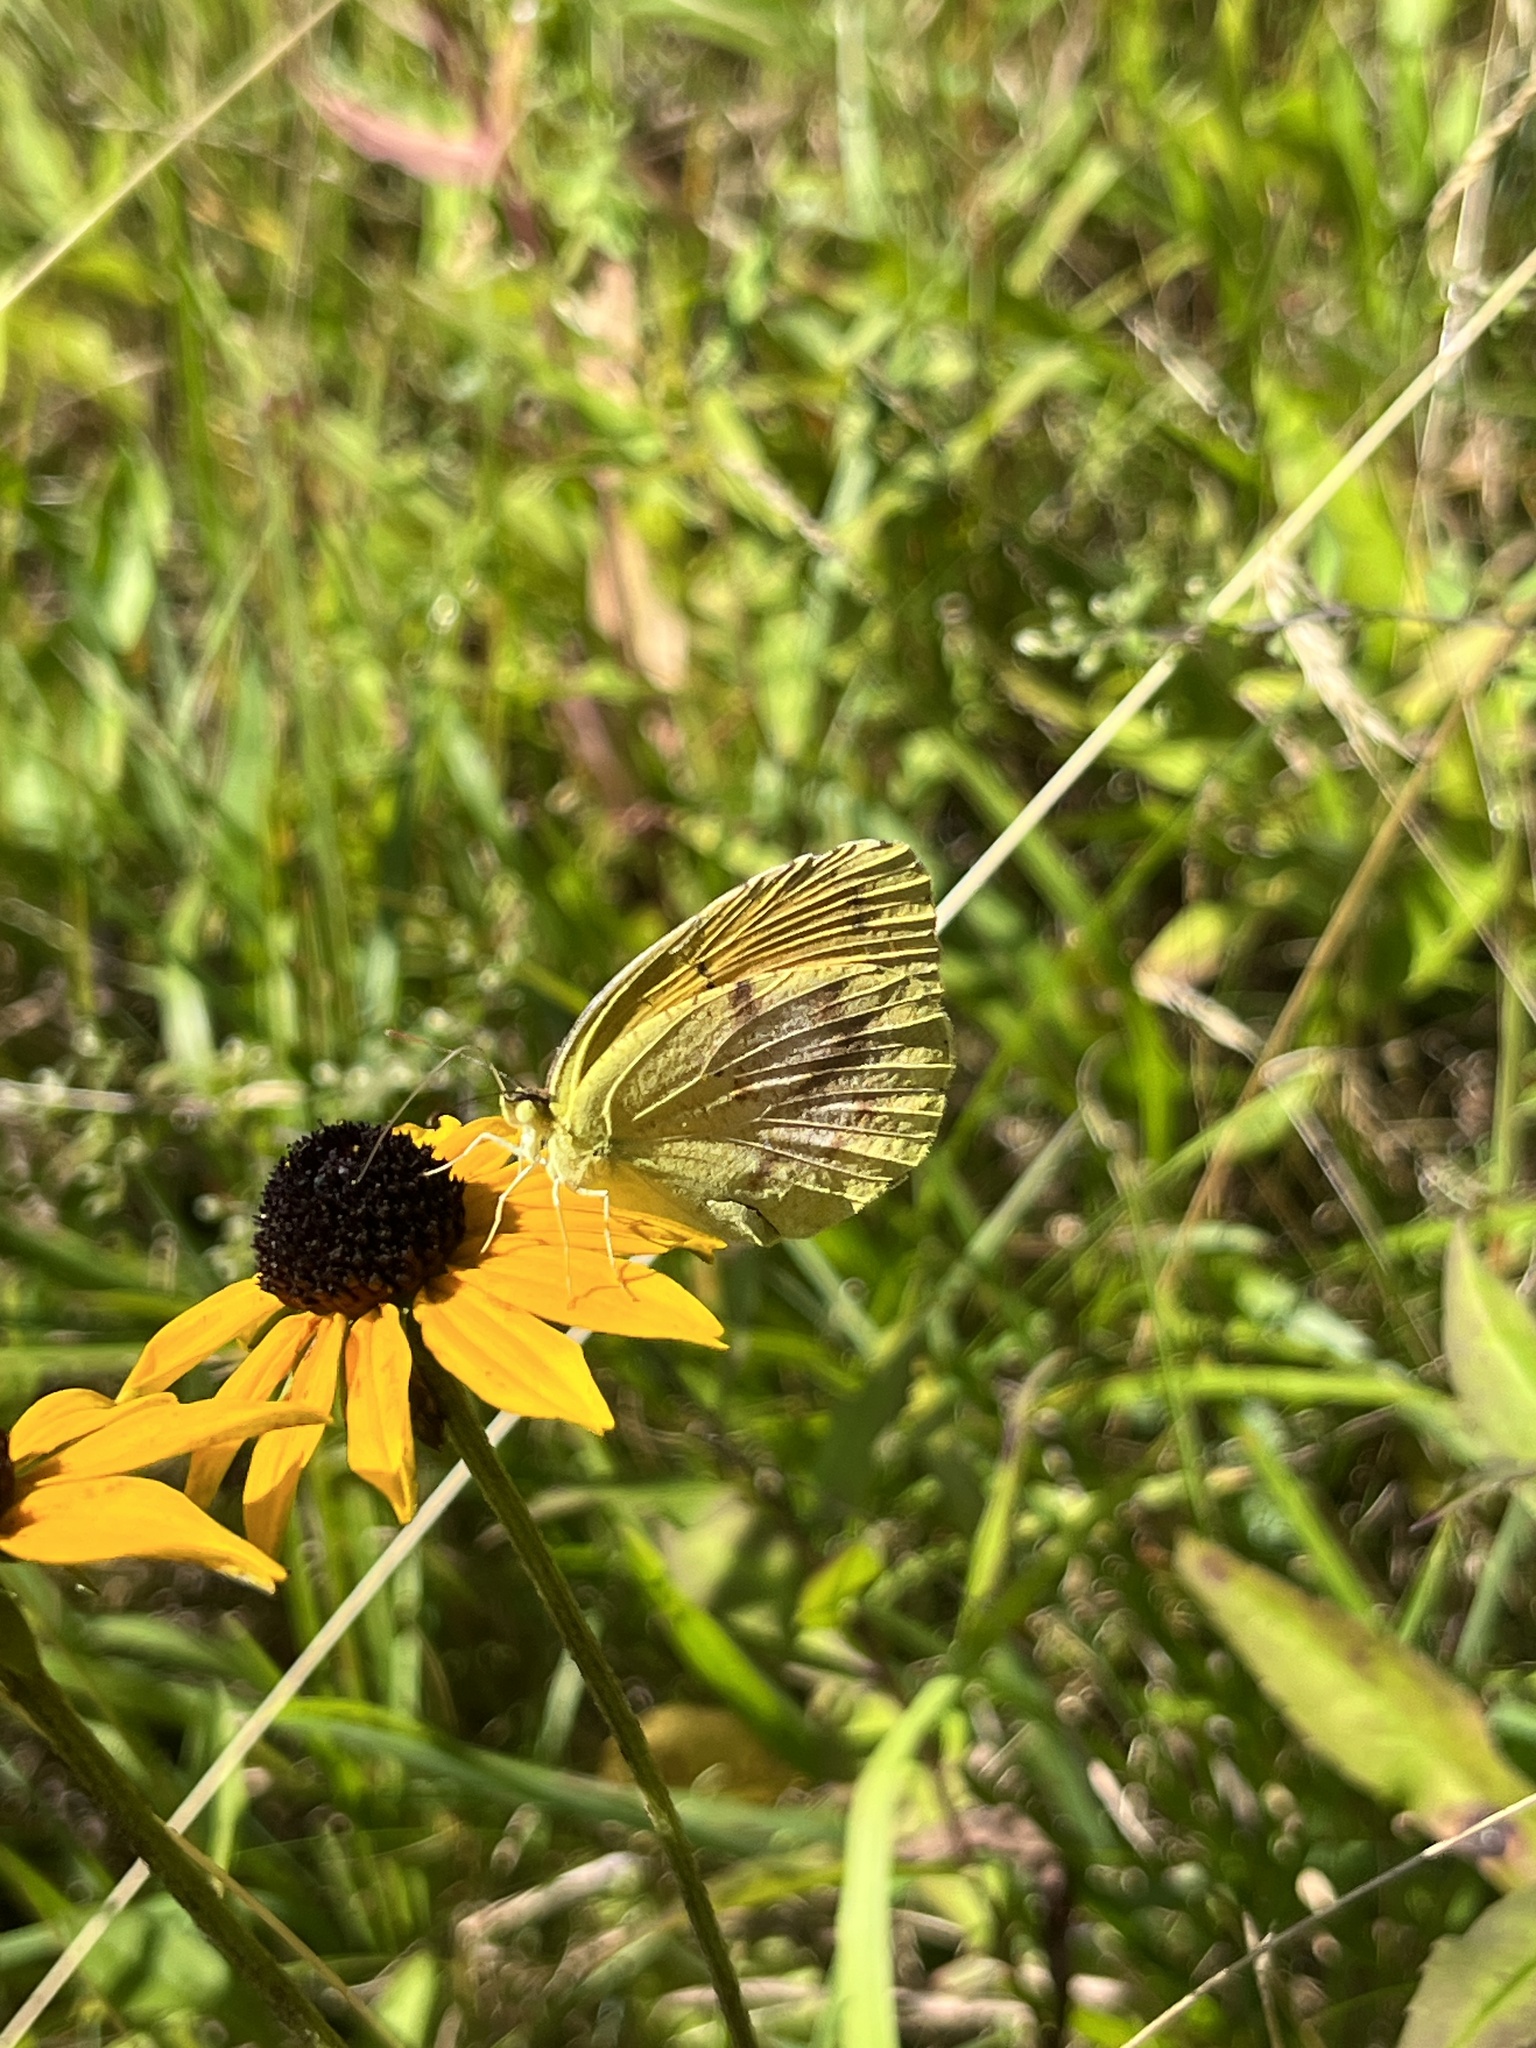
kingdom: Animalia
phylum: Arthropoda
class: Insecta
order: Lepidoptera
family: Pieridae
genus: Abaeis
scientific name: Abaeis nicippe
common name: Sleepy orange
